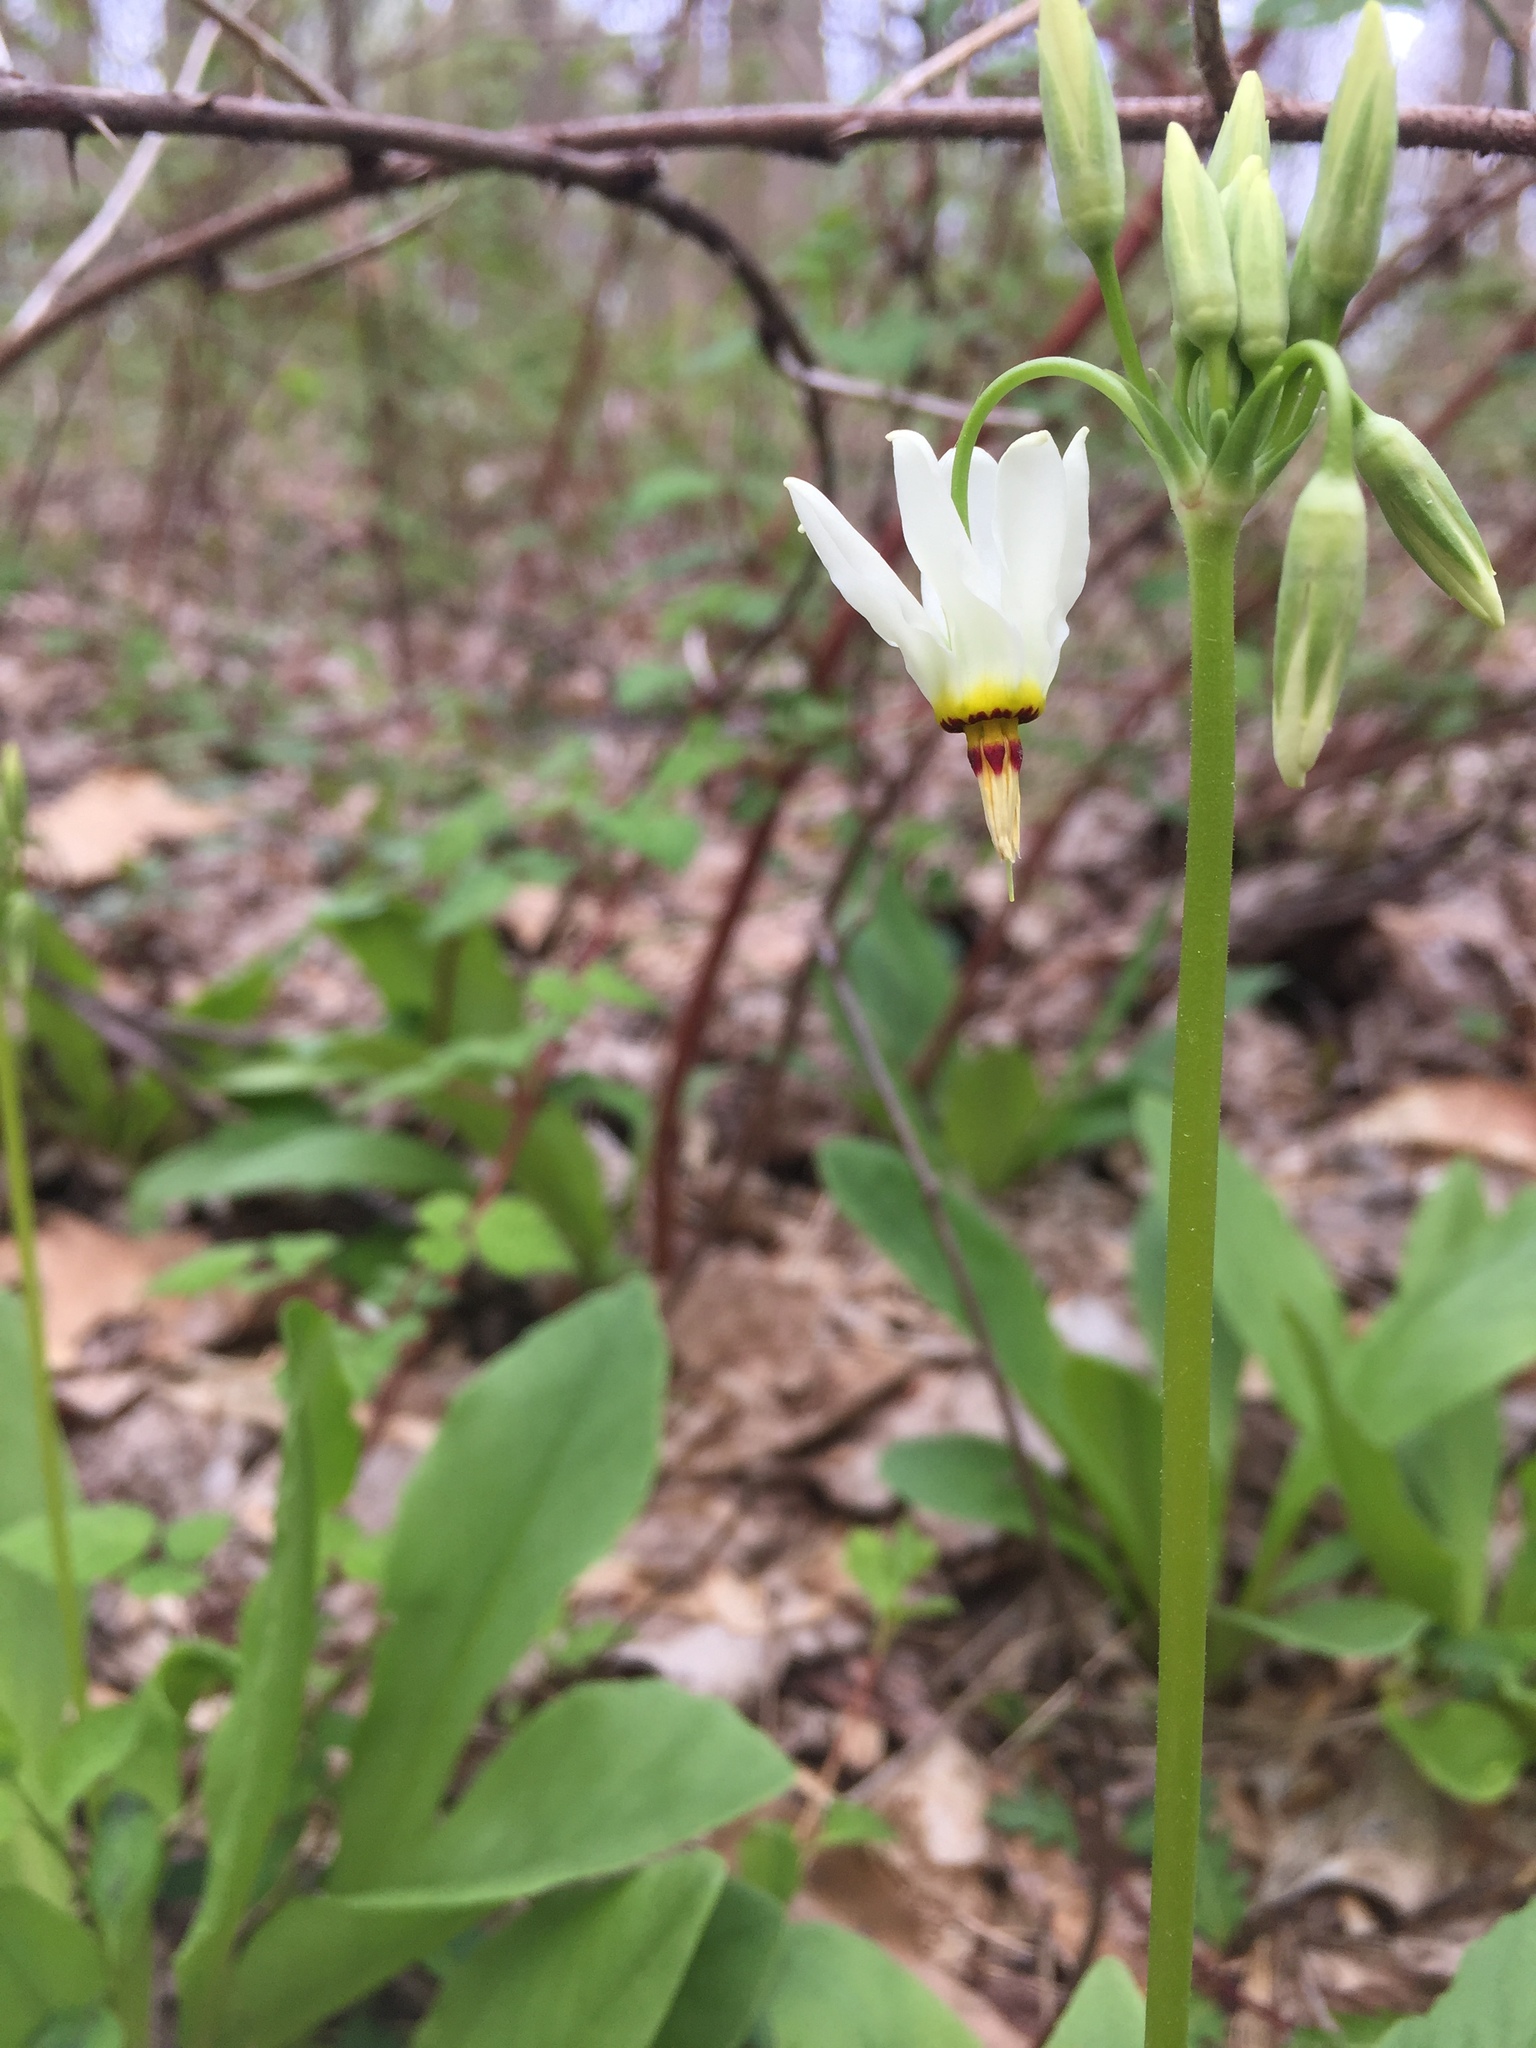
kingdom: Plantae
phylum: Tracheophyta
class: Magnoliopsida
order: Ericales
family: Primulaceae
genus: Dodecatheon
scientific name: Dodecatheon meadia
